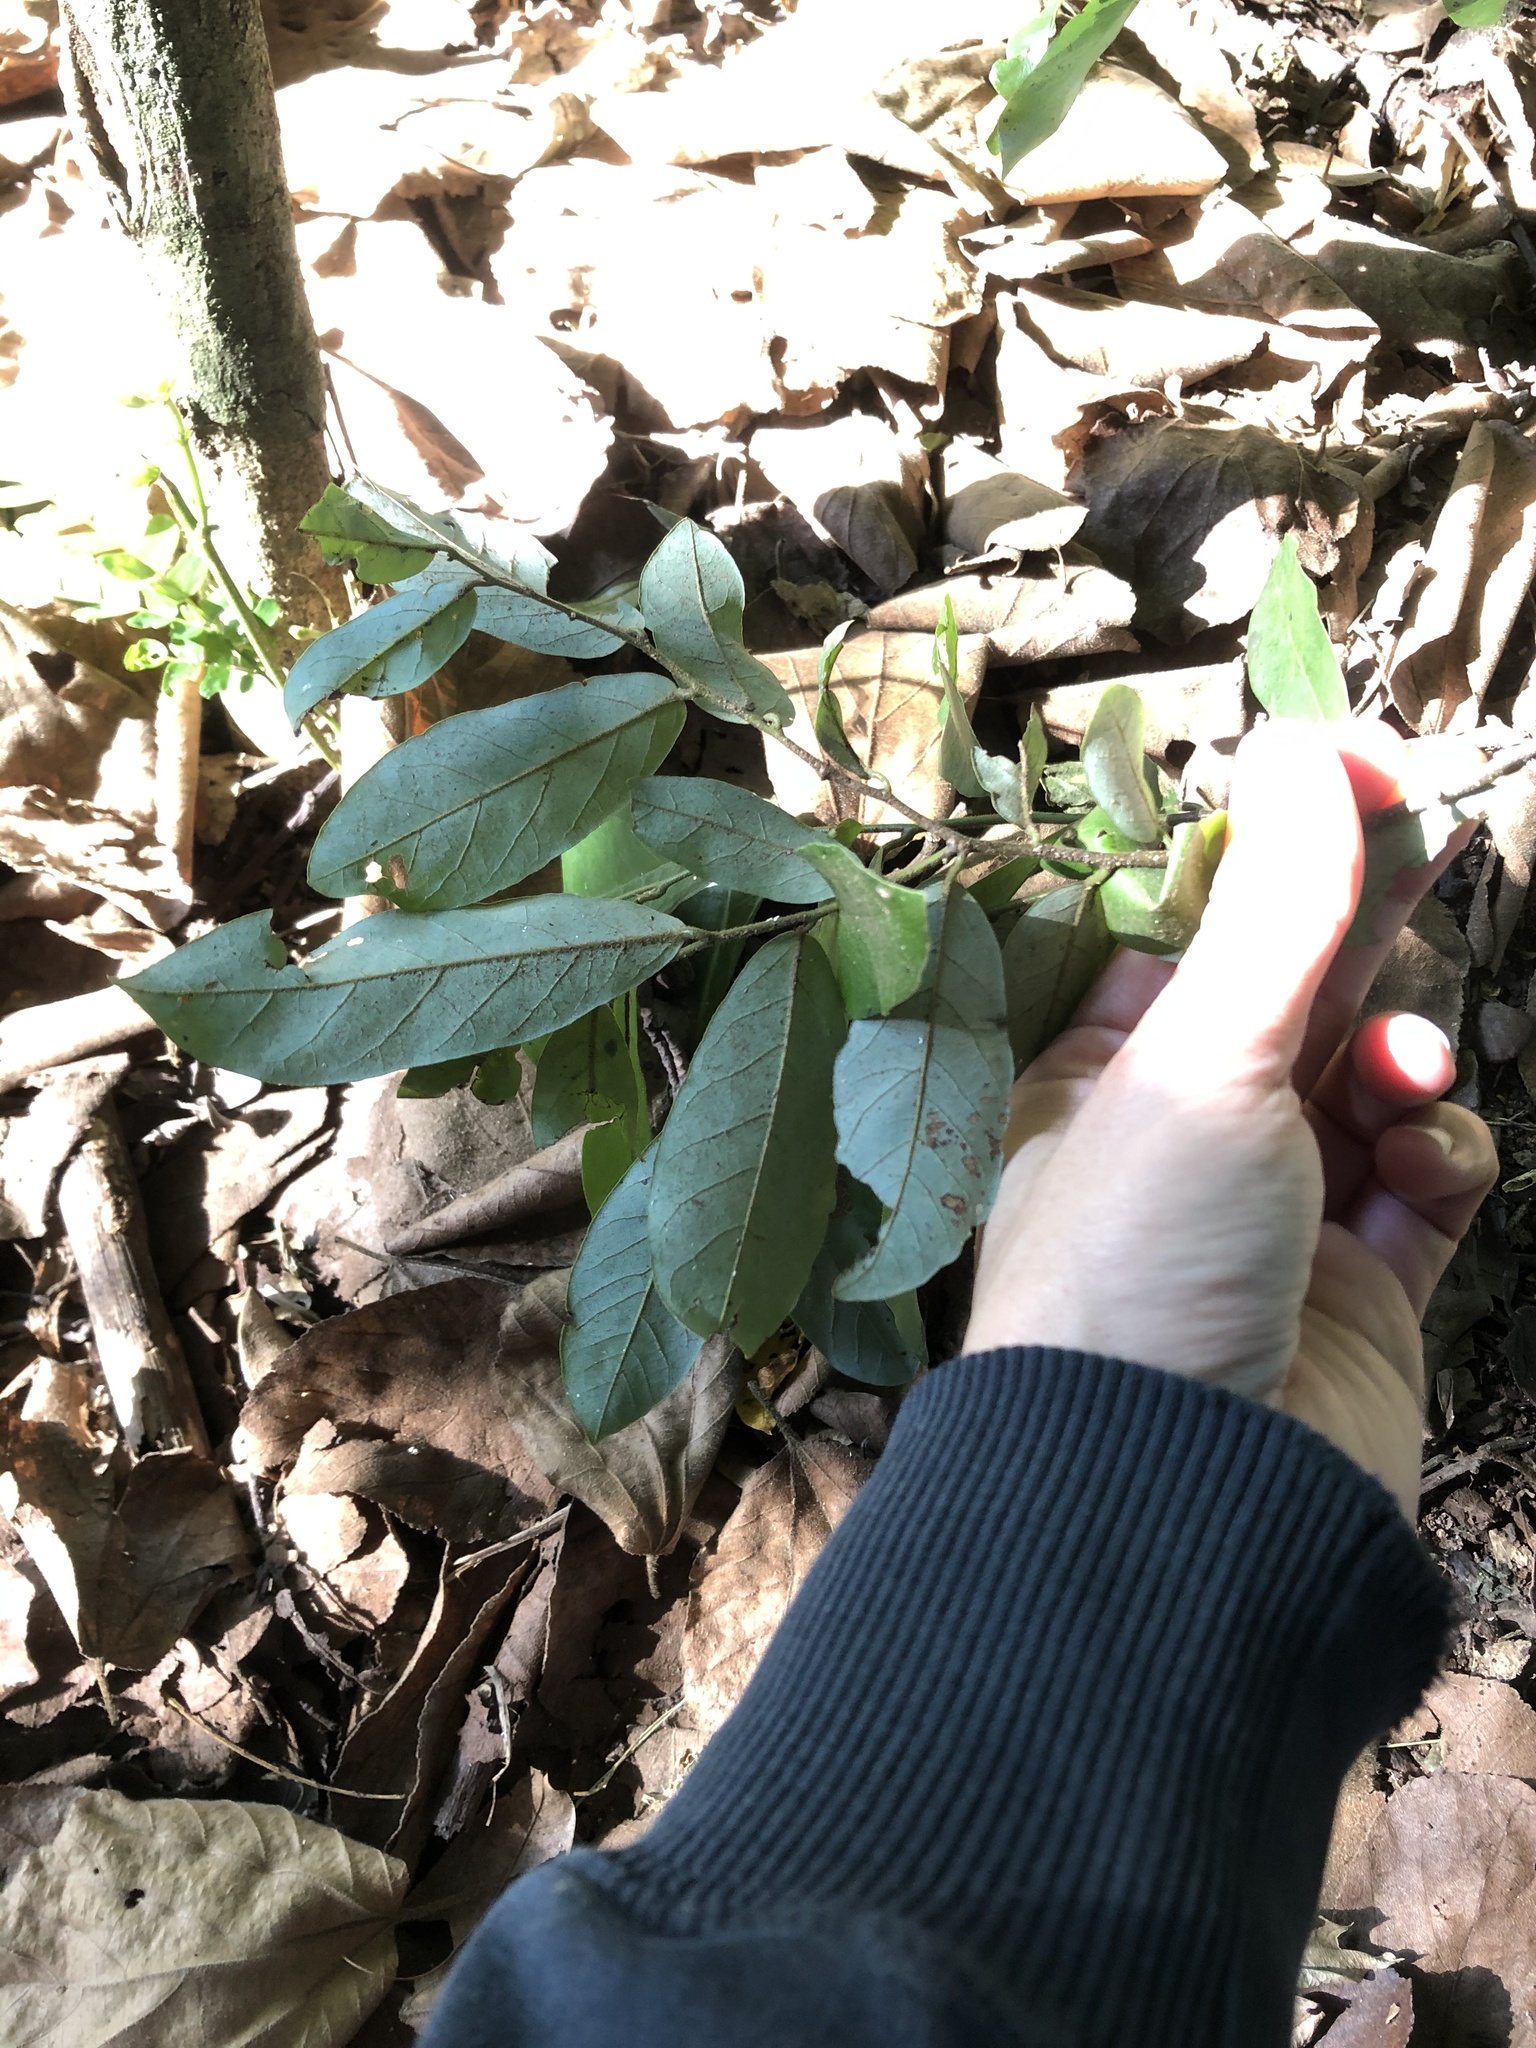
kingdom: Plantae
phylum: Tracheophyta
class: Magnoliopsida
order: Magnoliales
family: Annonaceae
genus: Monanthotaxis
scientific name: Monanthotaxis caffra
